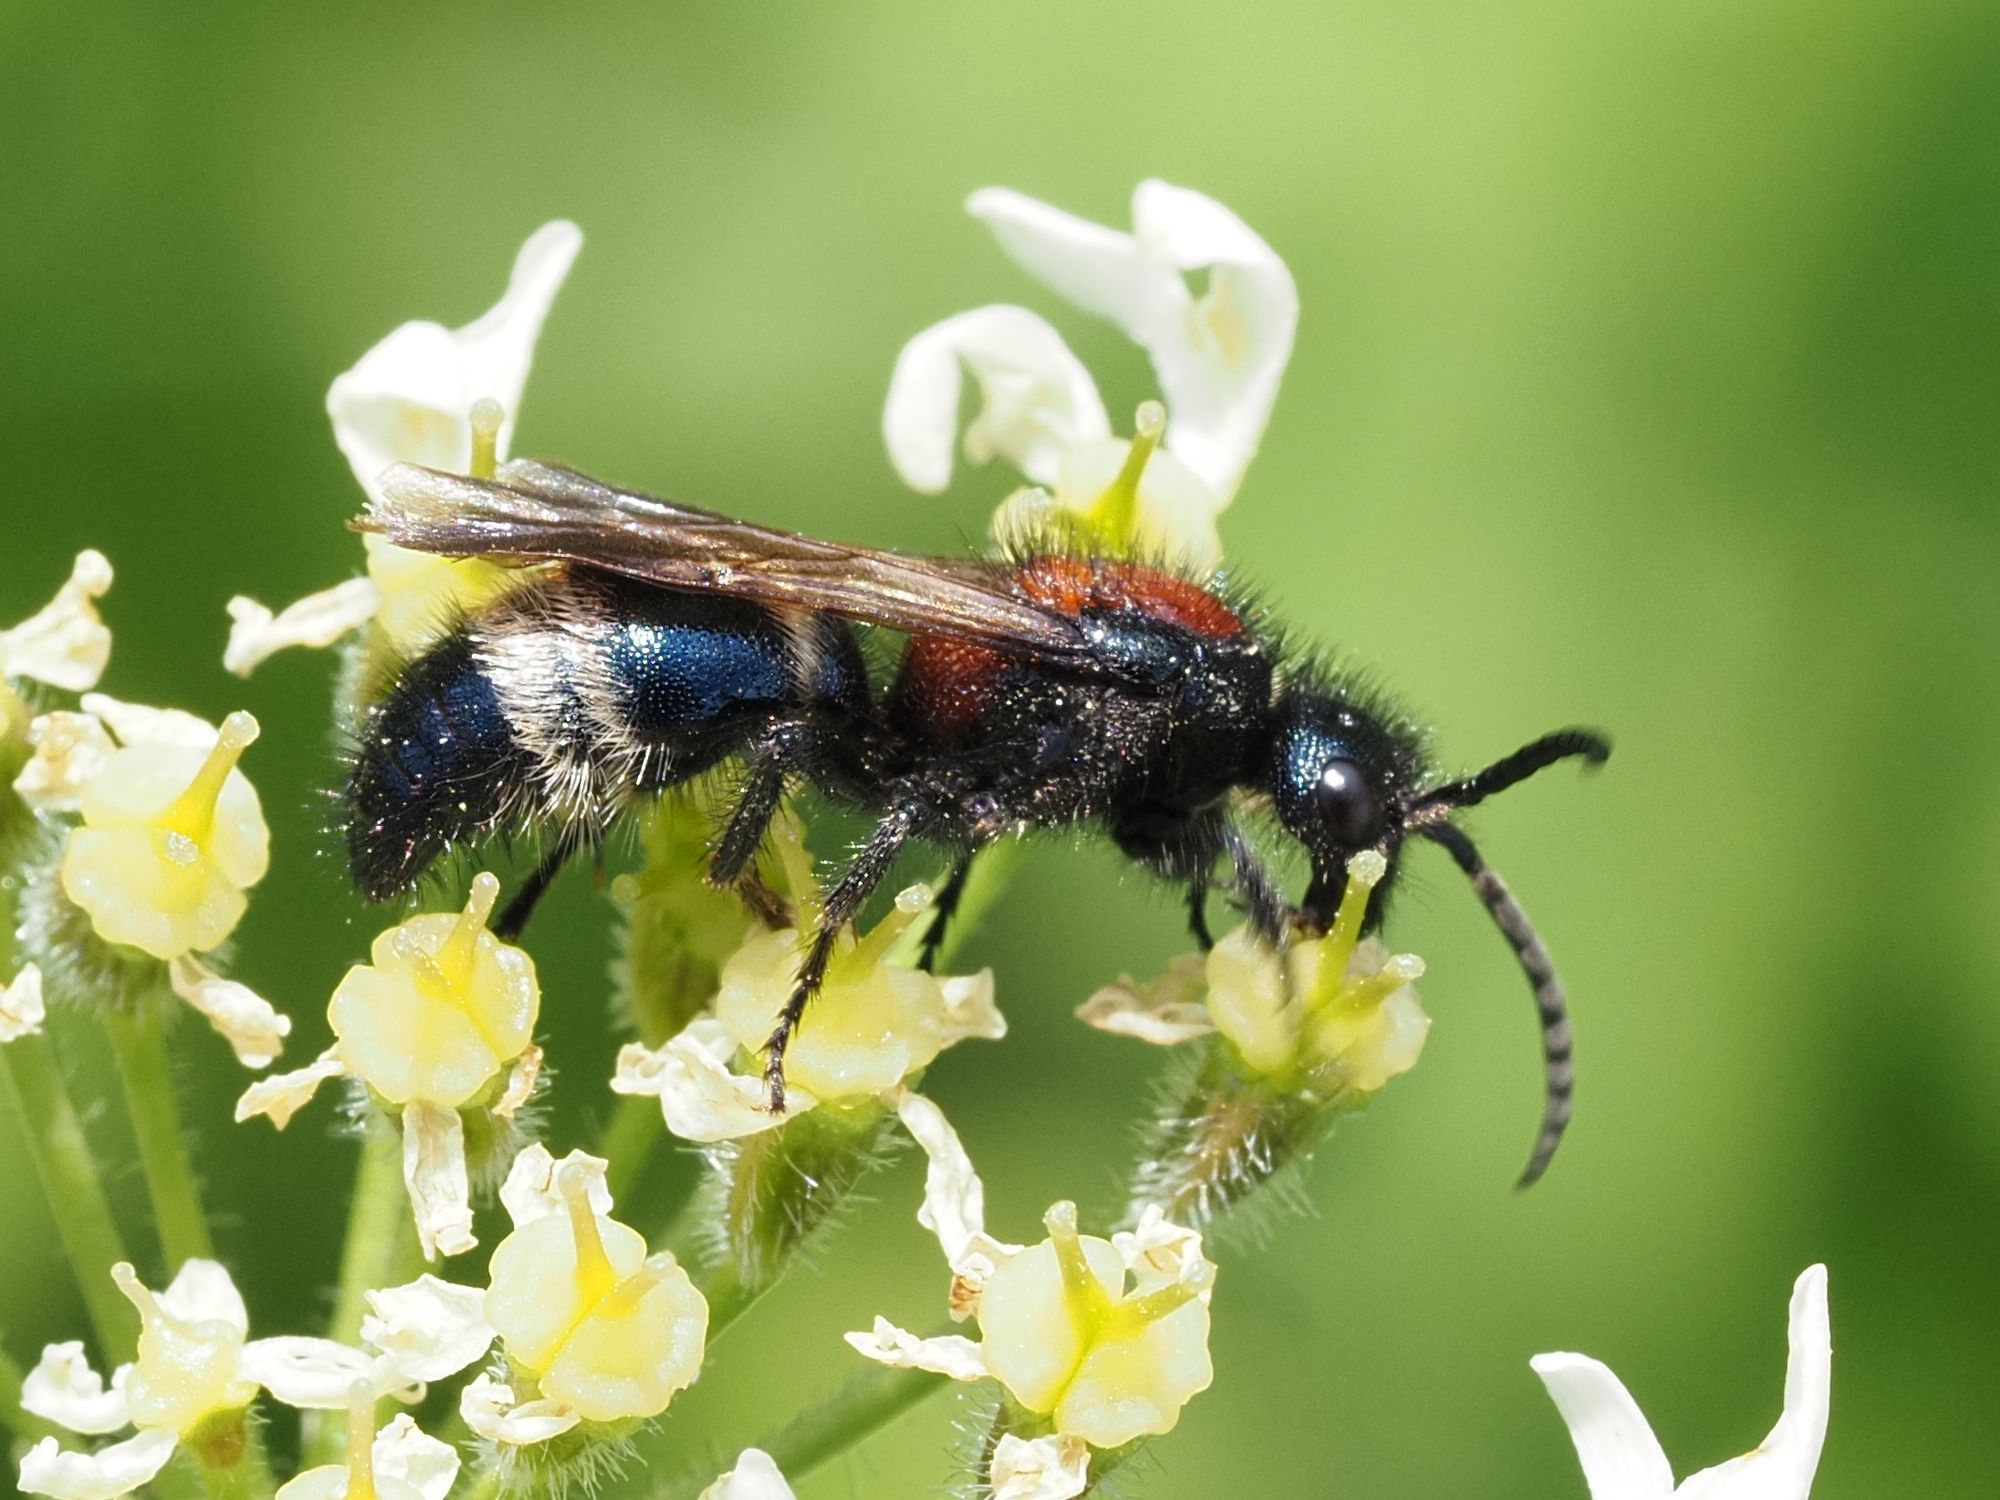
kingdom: Animalia
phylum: Arthropoda
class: Insecta
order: Hymenoptera
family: Mutillidae
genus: Mutilla
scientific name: Mutilla europaea
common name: Large velvet ant
